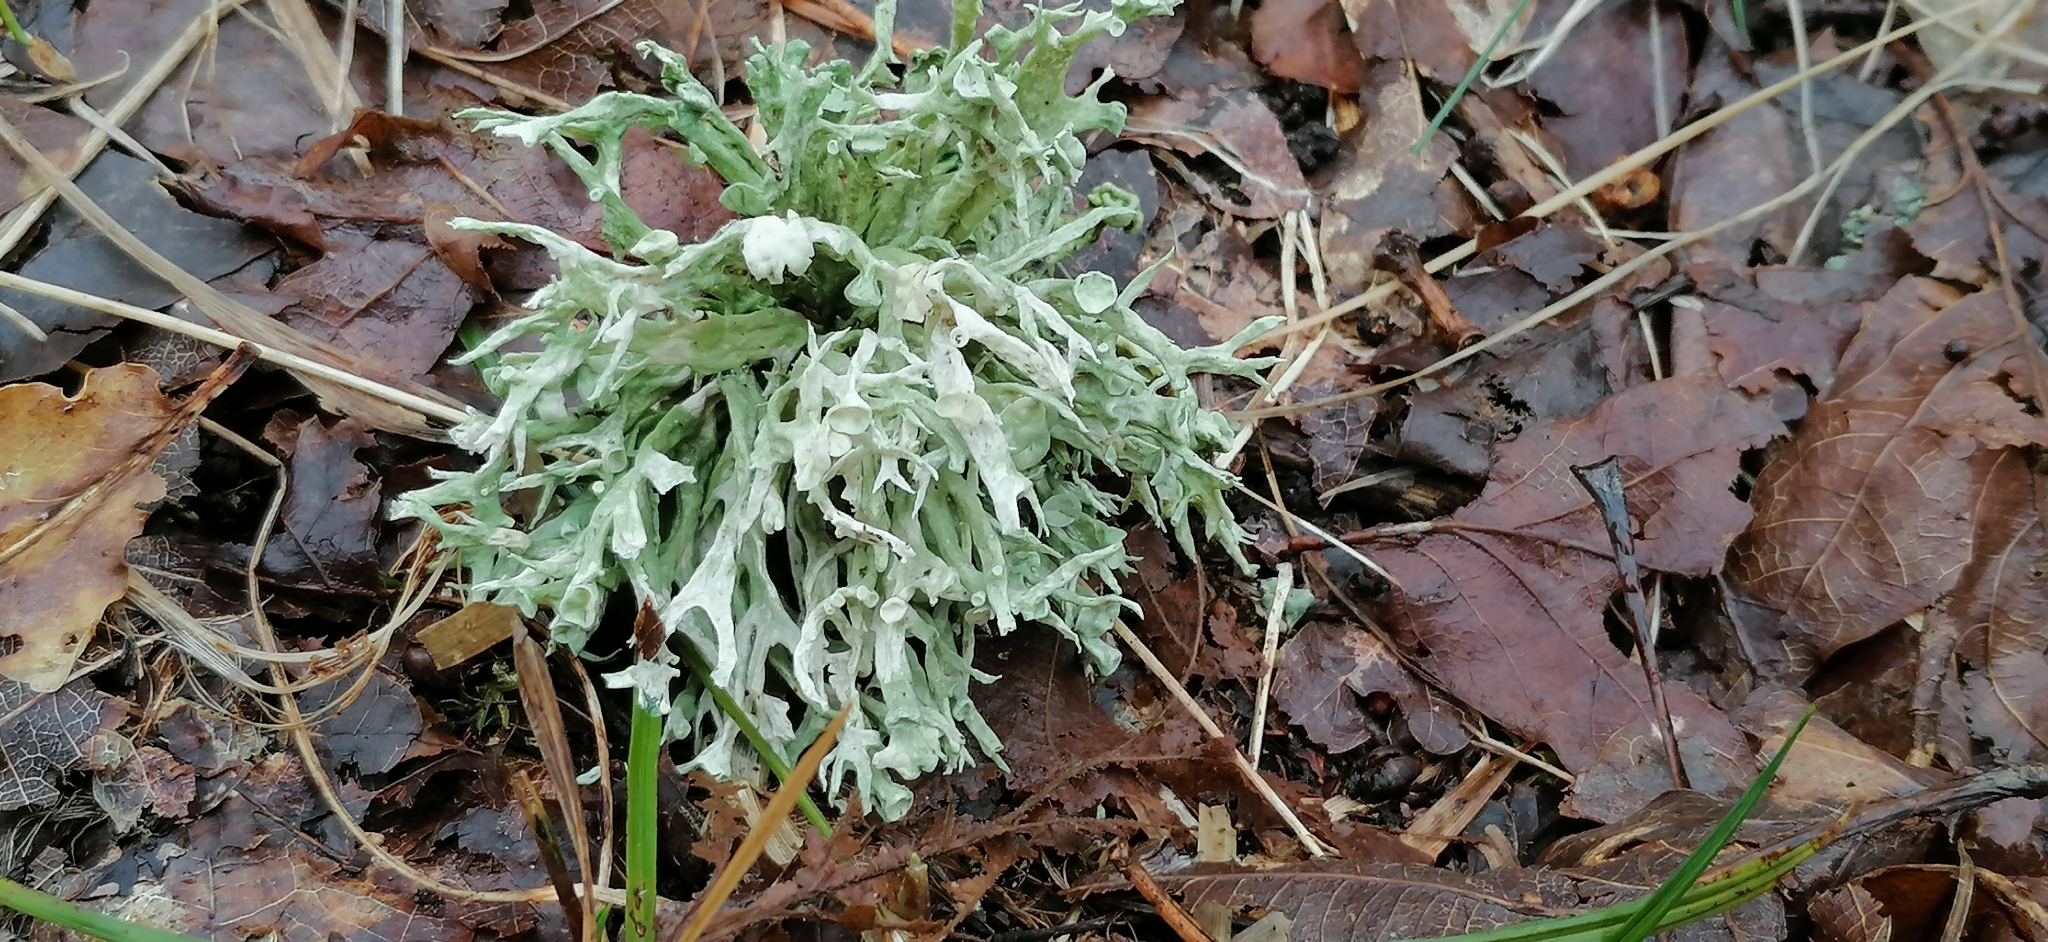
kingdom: Fungi
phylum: Ascomycota
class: Lecanoromycetes
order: Lecanorales
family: Ramalinaceae
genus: Ramalina
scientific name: Ramalina fastigiata
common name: Dotted ribbon lichen
